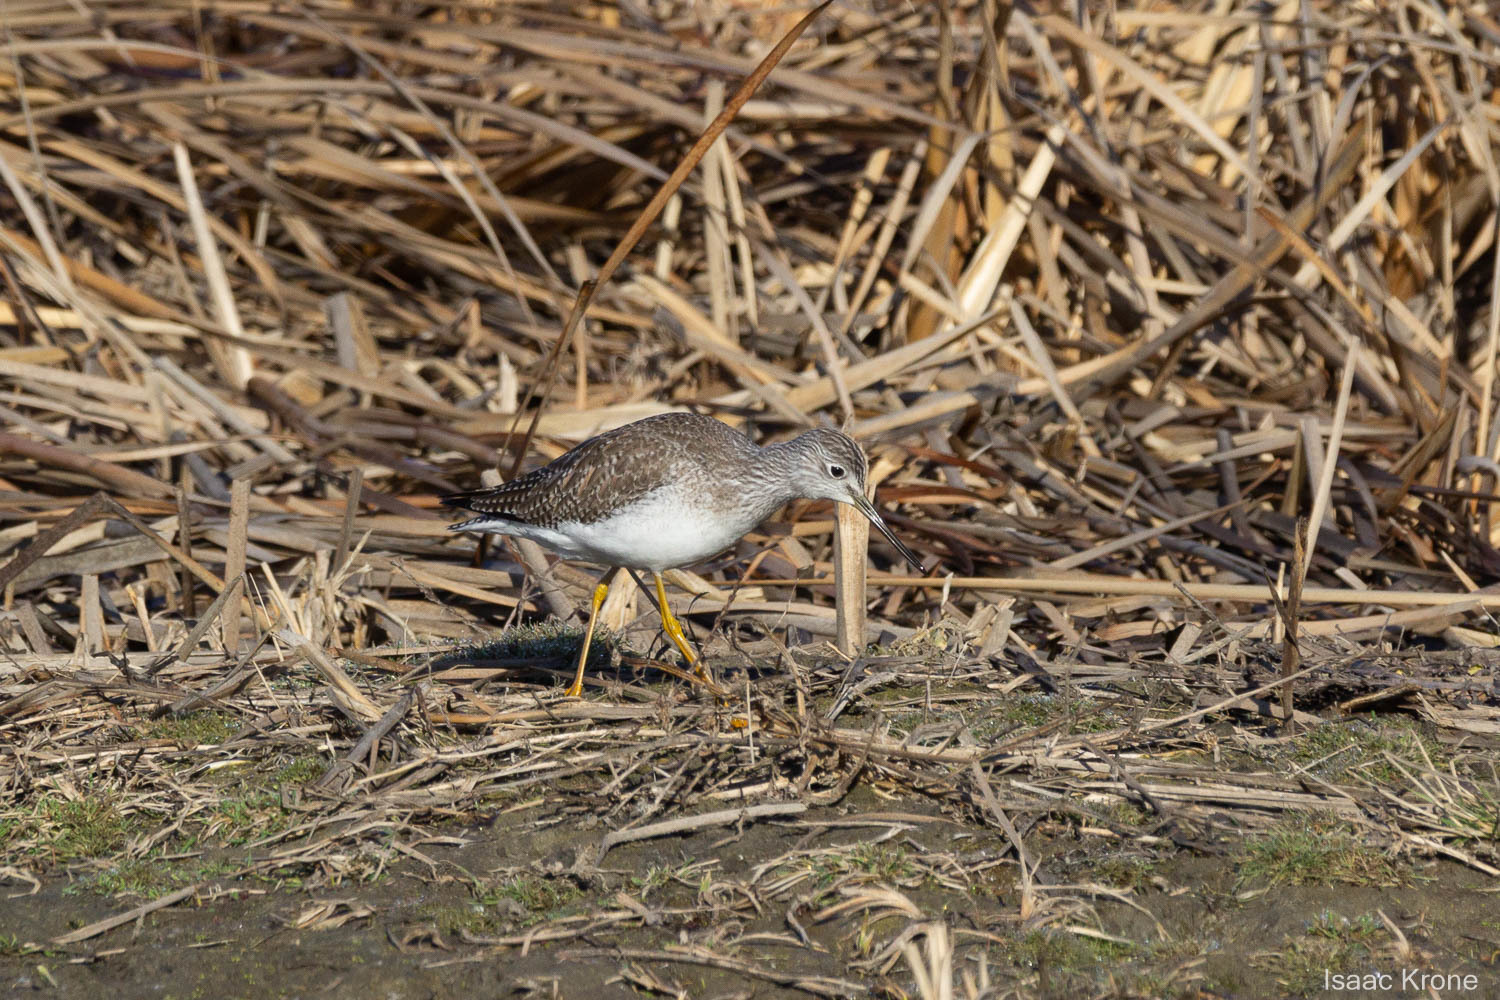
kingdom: Animalia
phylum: Chordata
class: Aves
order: Charadriiformes
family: Scolopacidae
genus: Tringa
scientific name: Tringa melanoleuca
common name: Greater yellowlegs
